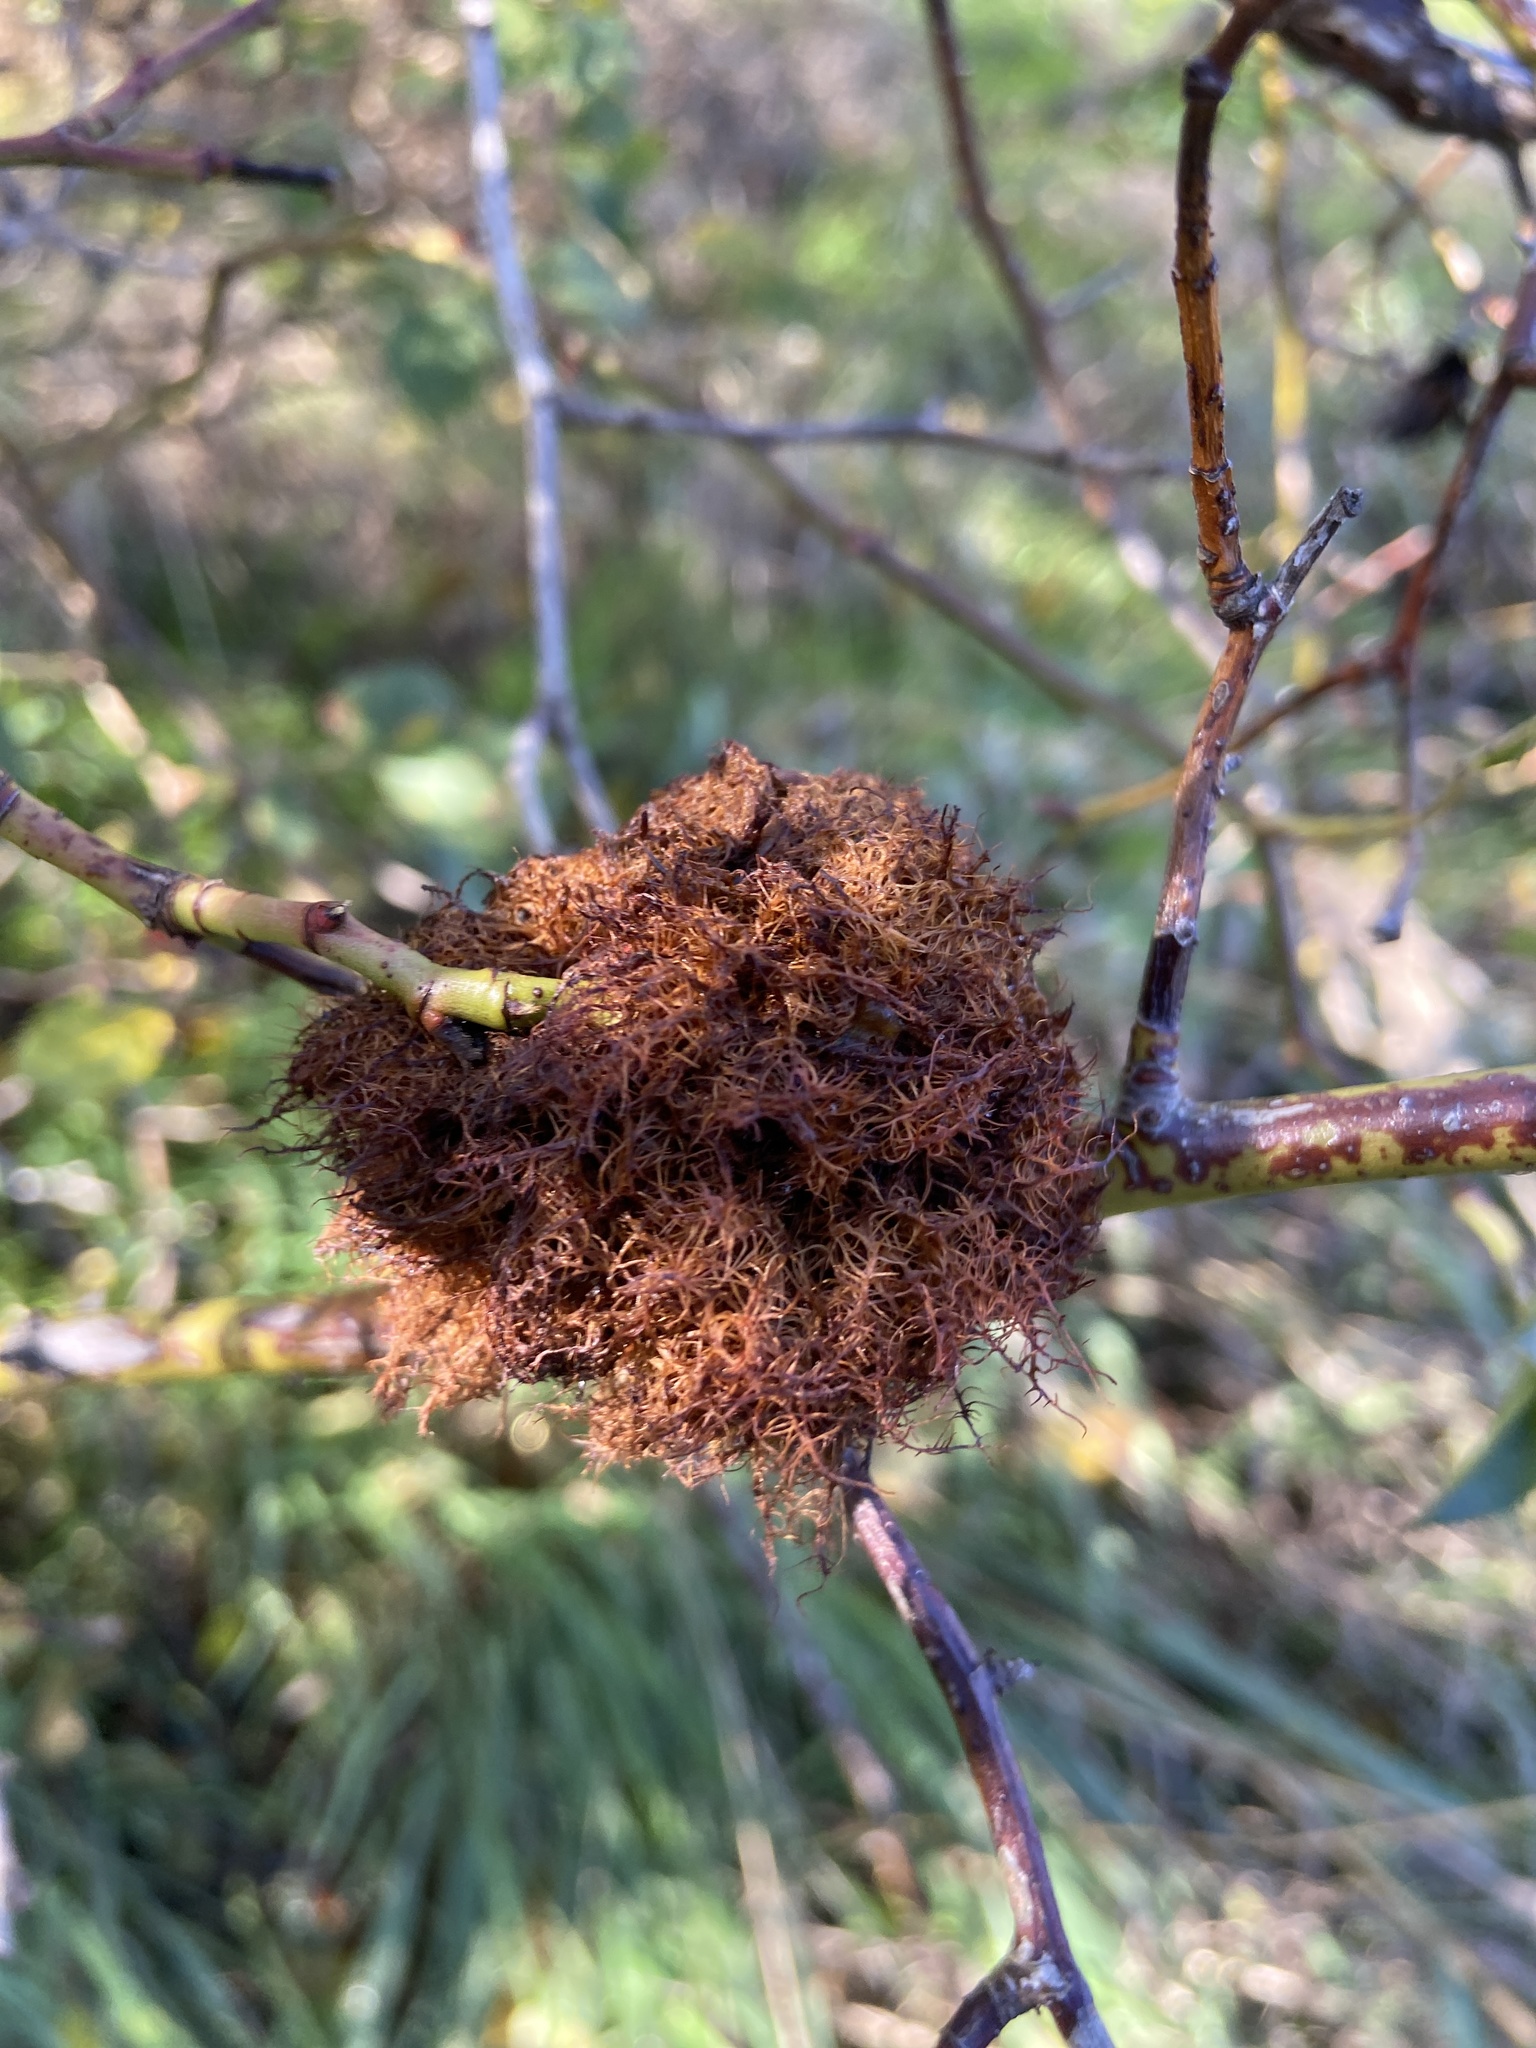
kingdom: Animalia
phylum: Arthropoda
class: Insecta
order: Hymenoptera
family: Cynipidae
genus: Diplolepis
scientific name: Diplolepis rosae
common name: Bedeguar gall
